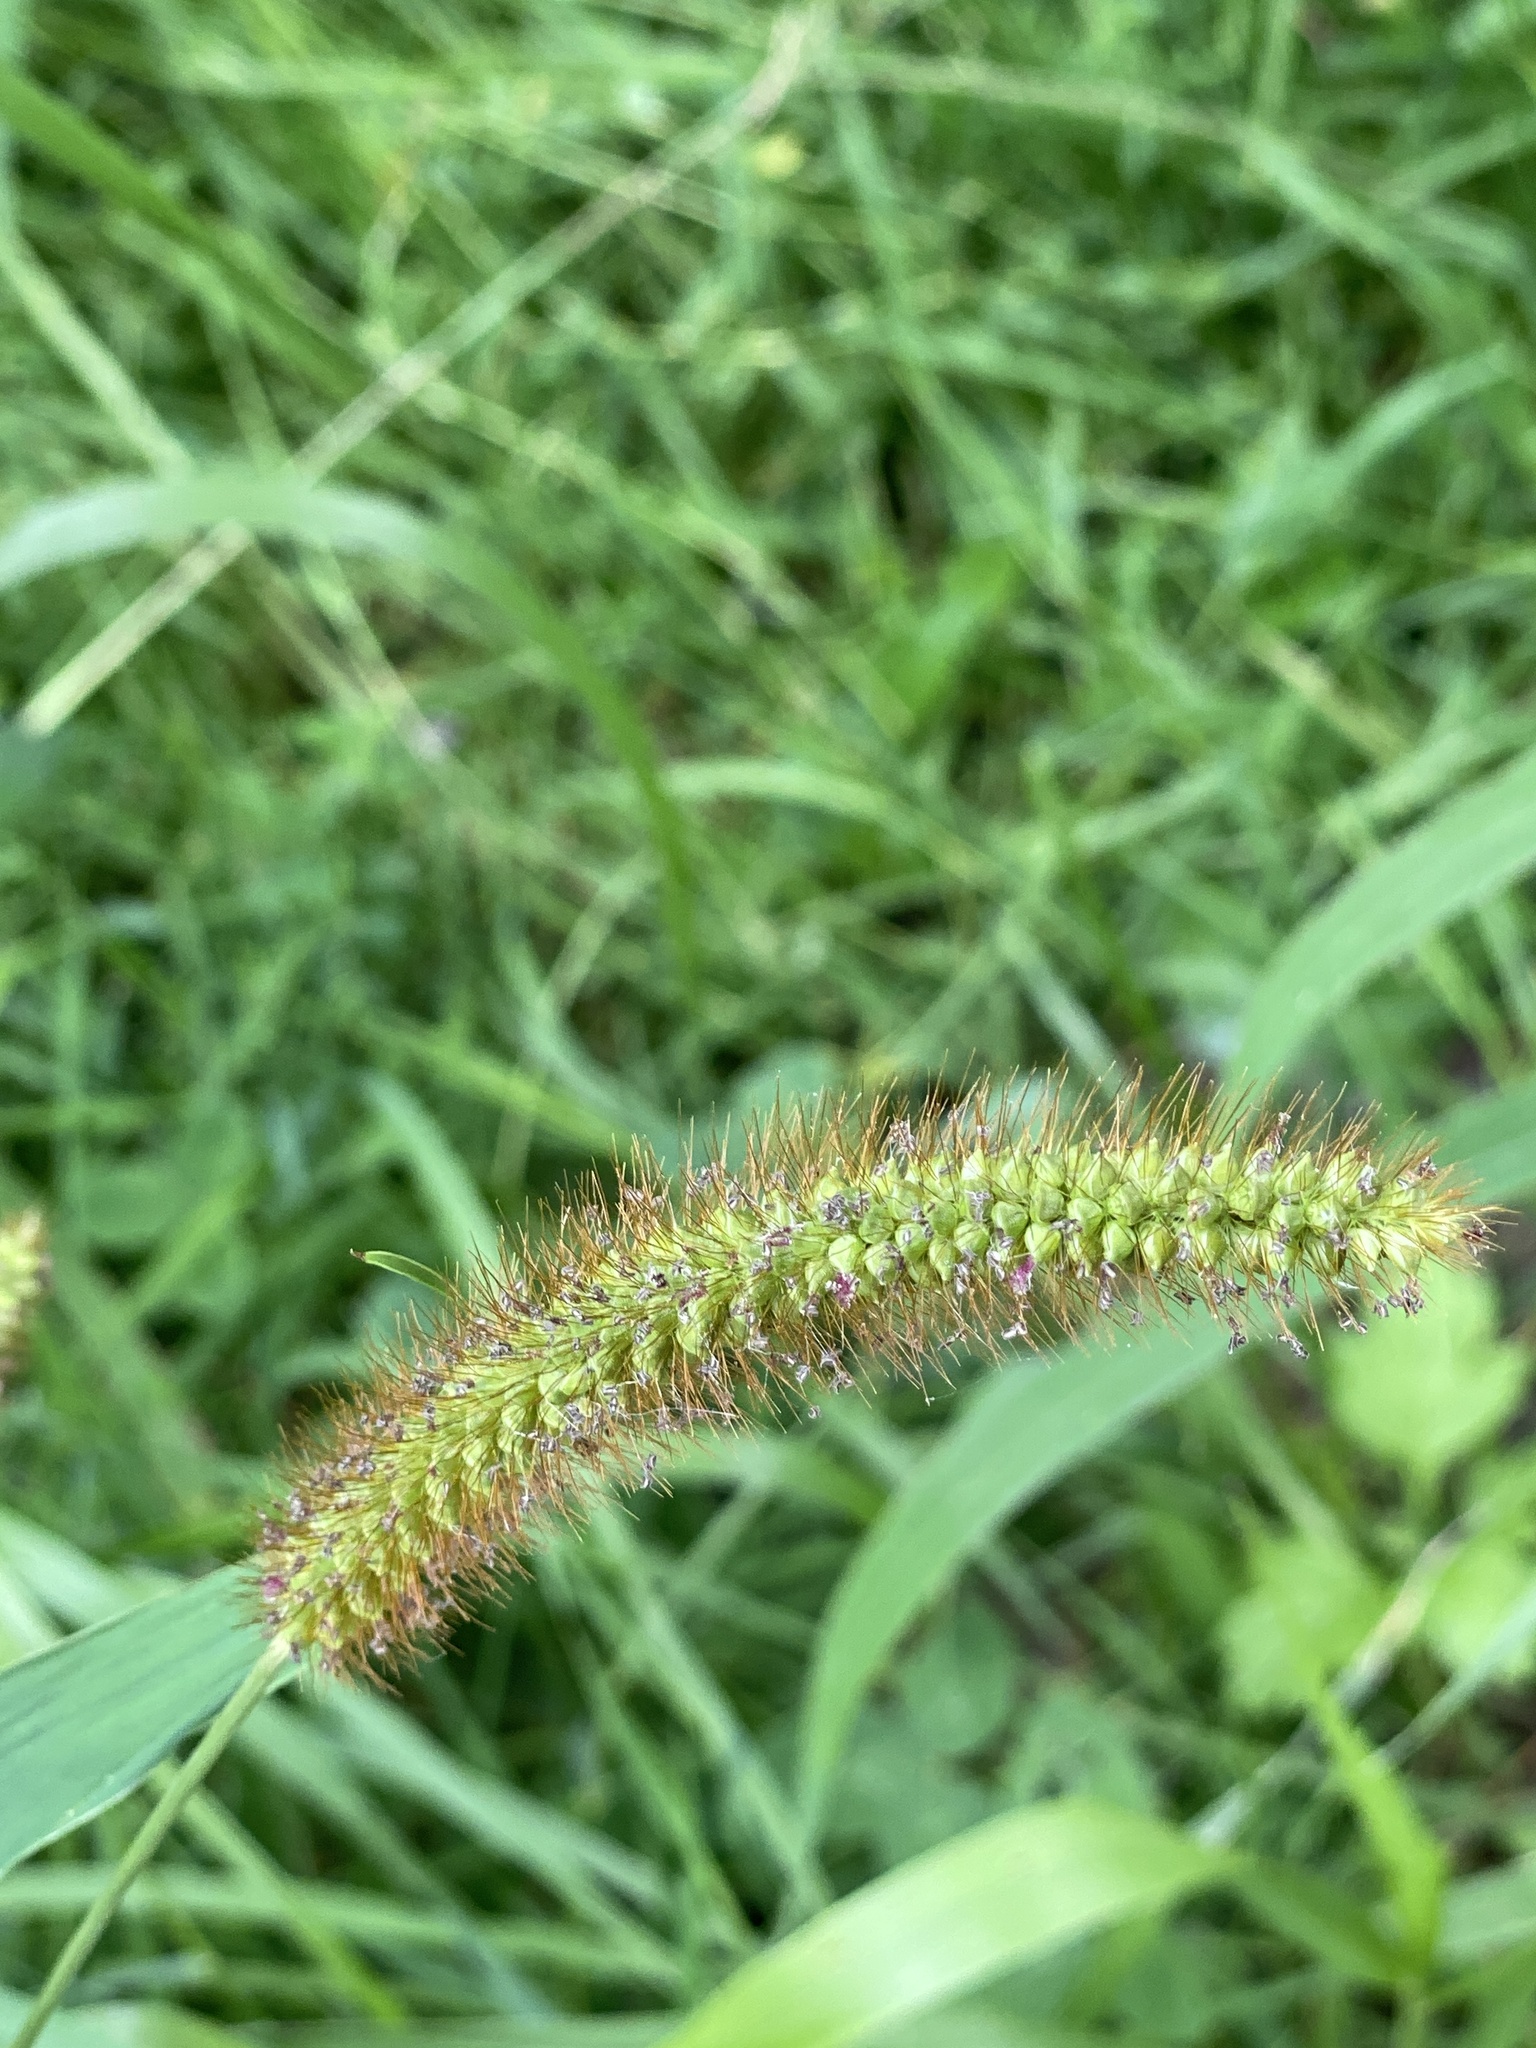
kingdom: Plantae
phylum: Tracheophyta
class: Liliopsida
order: Poales
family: Poaceae
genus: Setaria
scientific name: Setaria pumila
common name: Yellow bristle-grass
